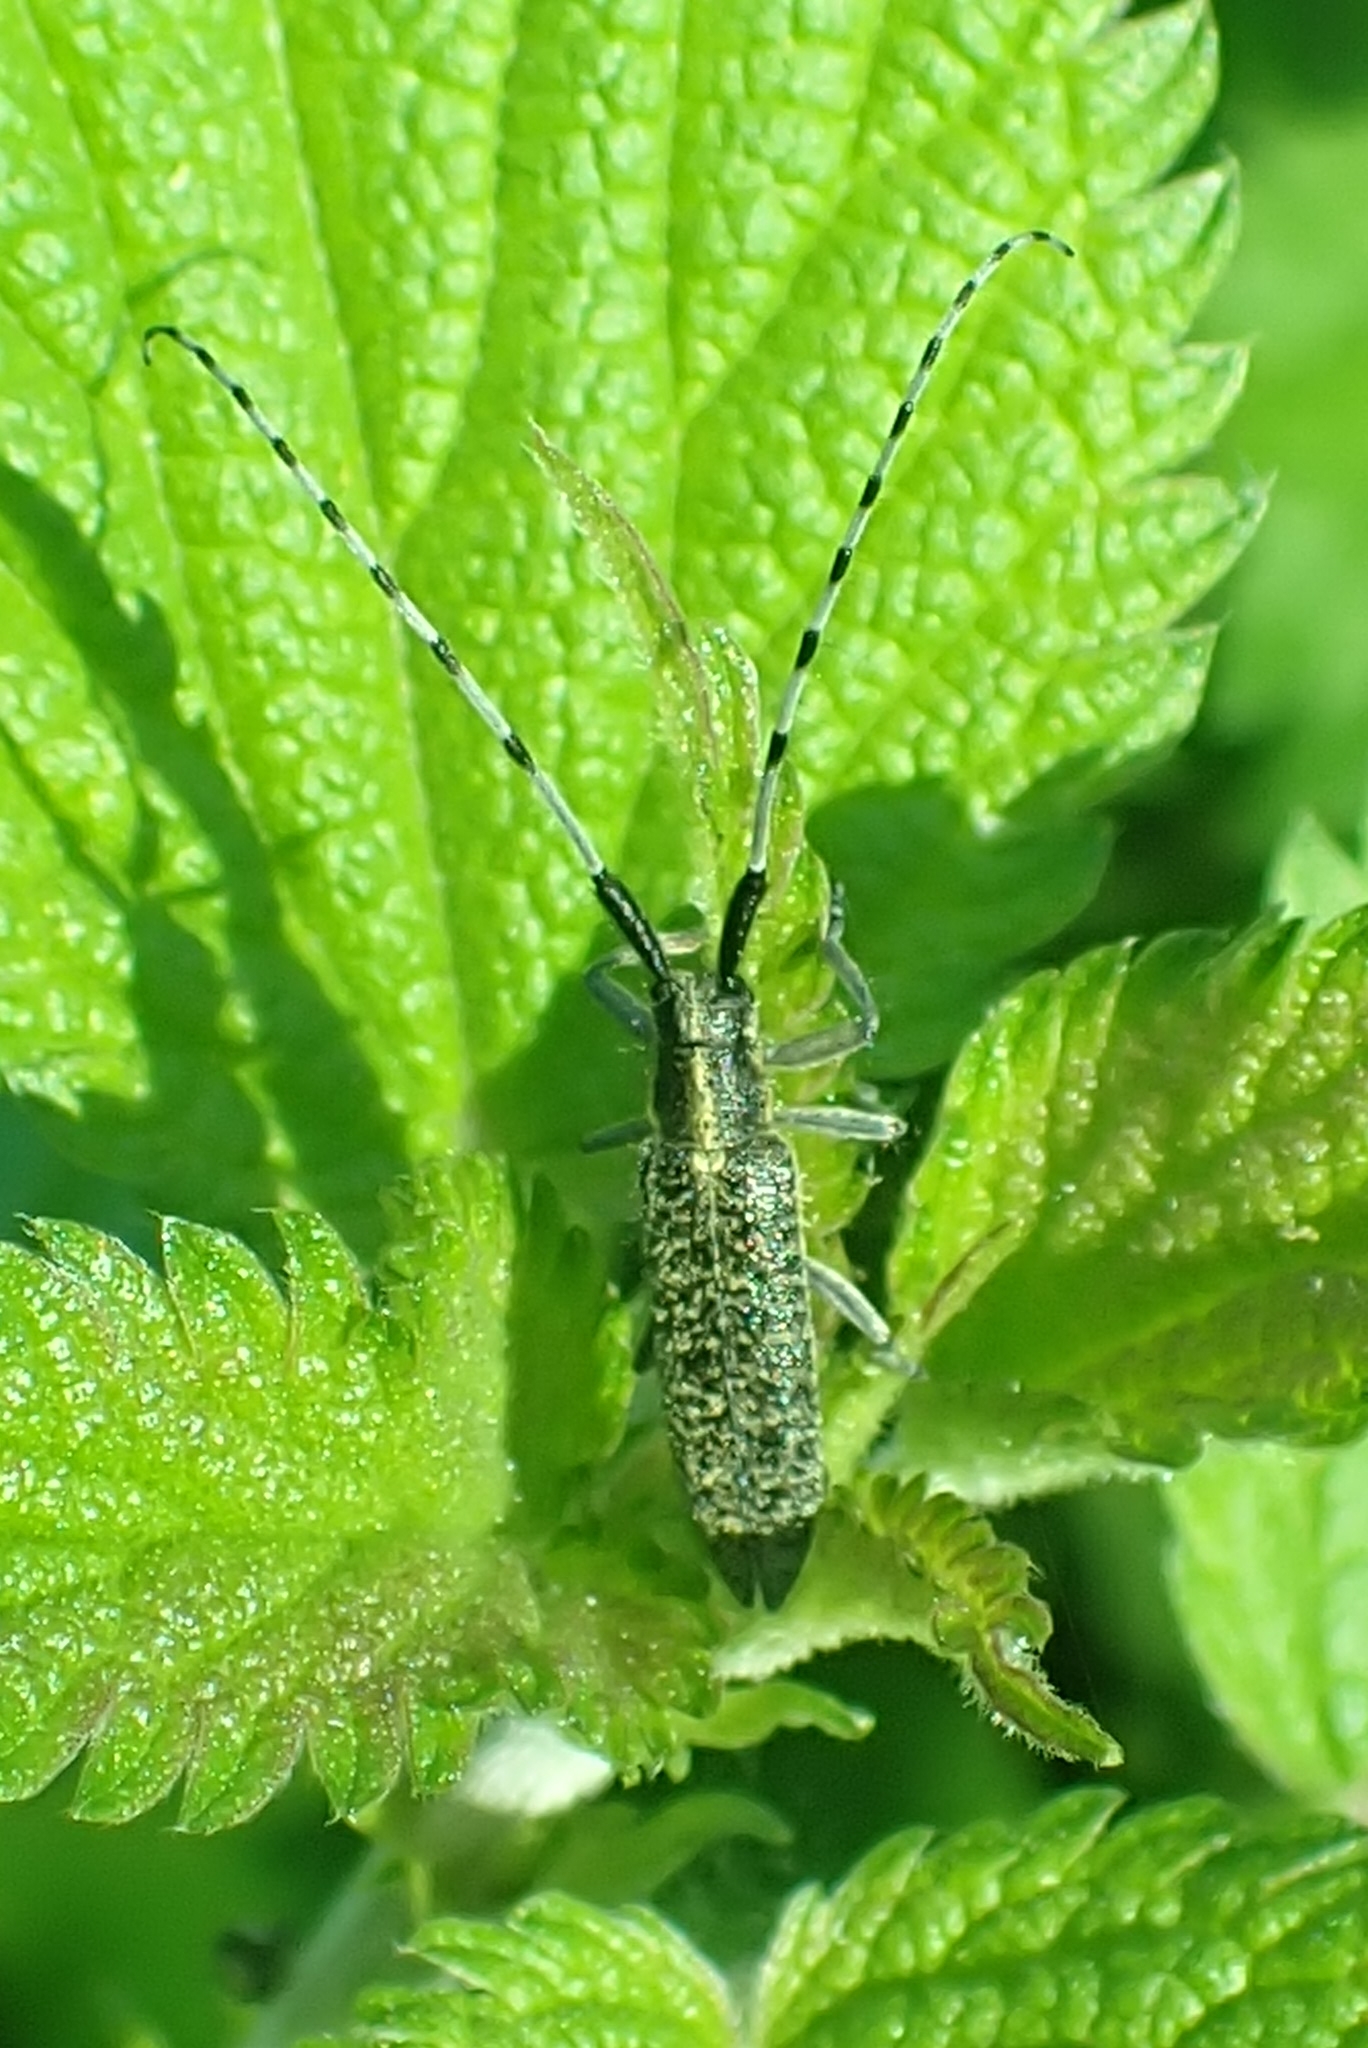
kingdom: Animalia
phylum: Arthropoda
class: Insecta
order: Coleoptera
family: Cerambycidae
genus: Agapanthia
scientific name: Agapanthia villosoviridescens
